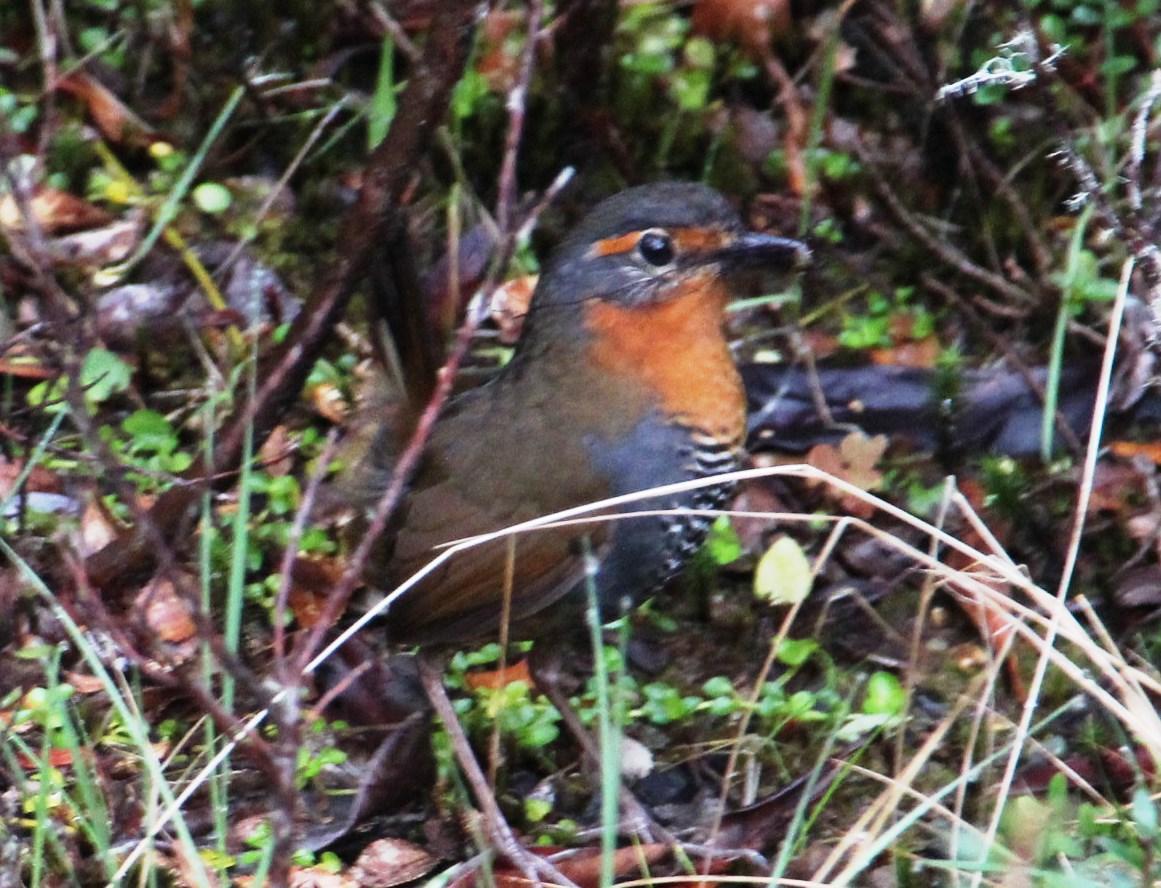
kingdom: Animalia
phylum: Chordata
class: Aves
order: Passeriformes
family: Rhinocryptidae
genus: Scelorchilus
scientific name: Scelorchilus rubecula
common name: Chucao tapaculo
